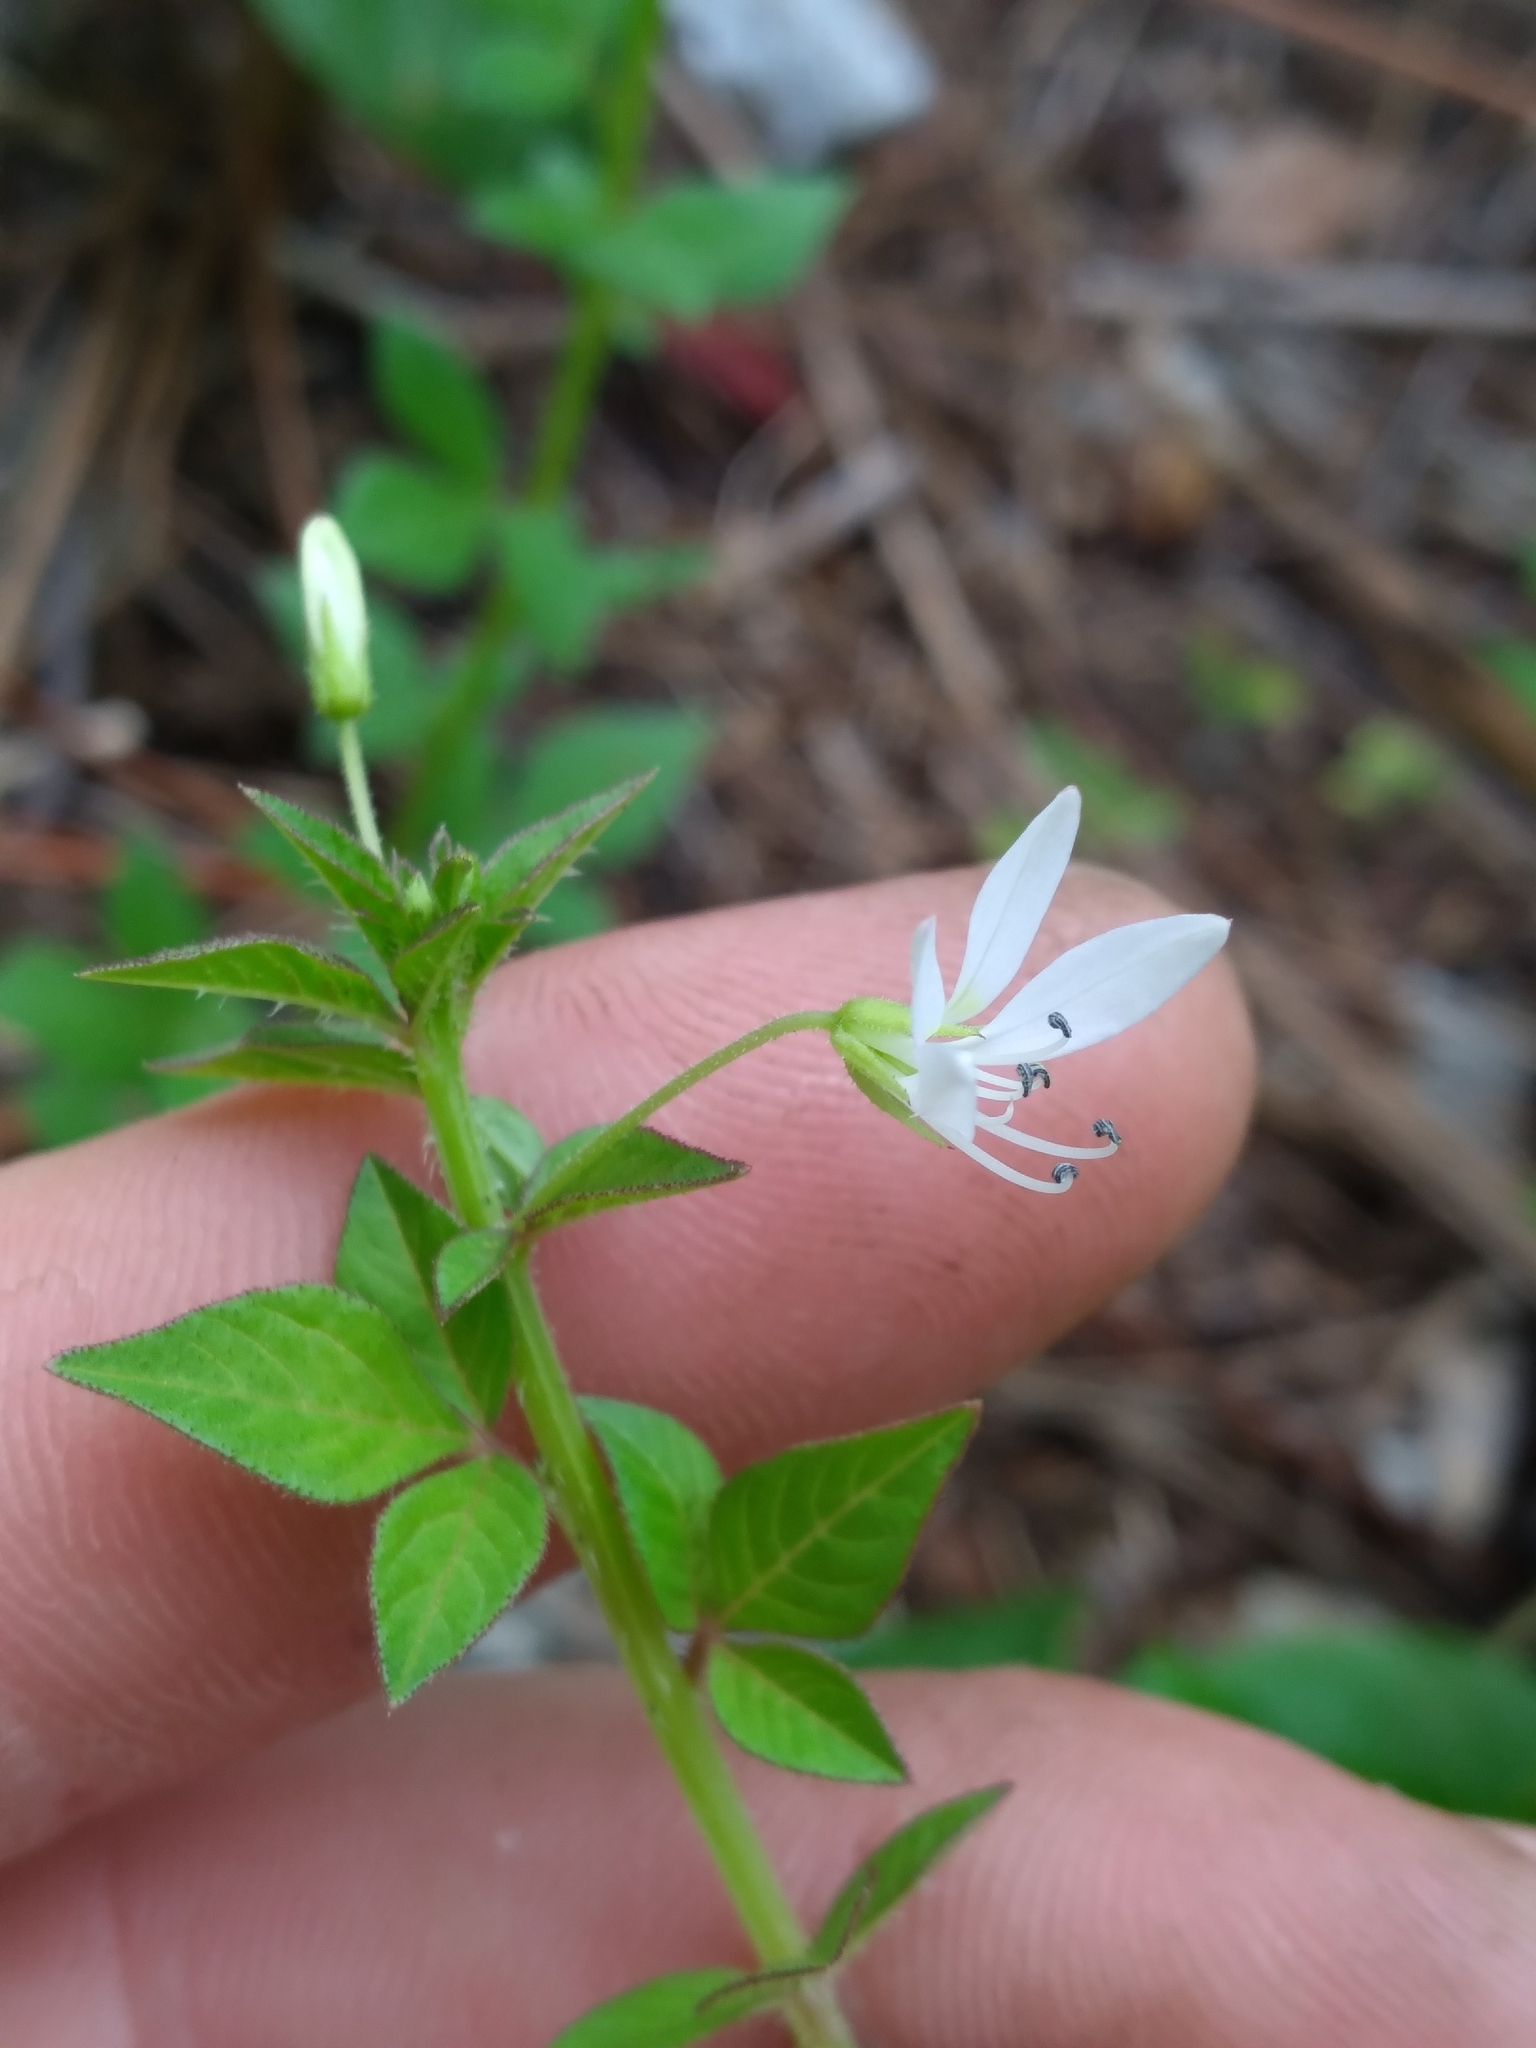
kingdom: Plantae
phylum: Tracheophyta
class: Magnoliopsida
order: Brassicales
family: Cleomaceae
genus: Sieruela
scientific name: Sieruela rutidosperma
